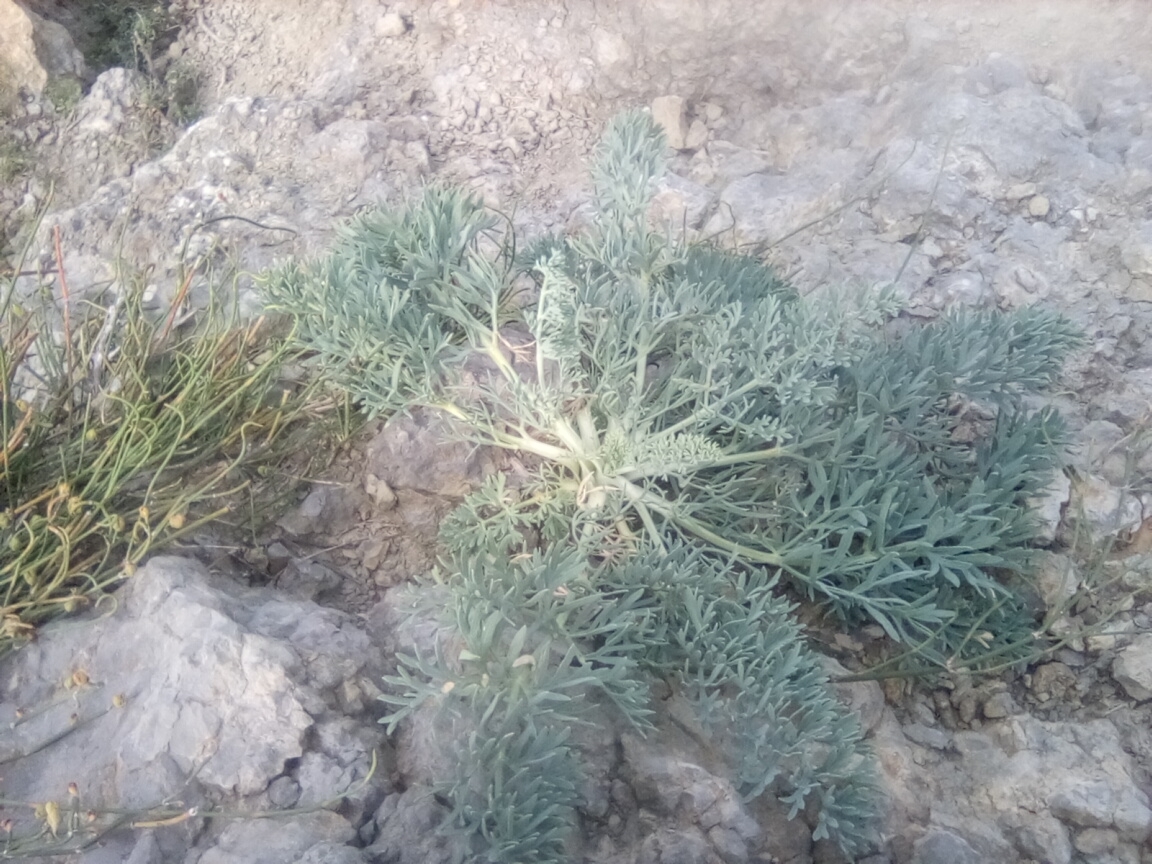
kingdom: Plantae
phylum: Tracheophyta
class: Magnoliopsida
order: Apiales
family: Apiaceae
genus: Seseli
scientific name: Seseli gummiferum
